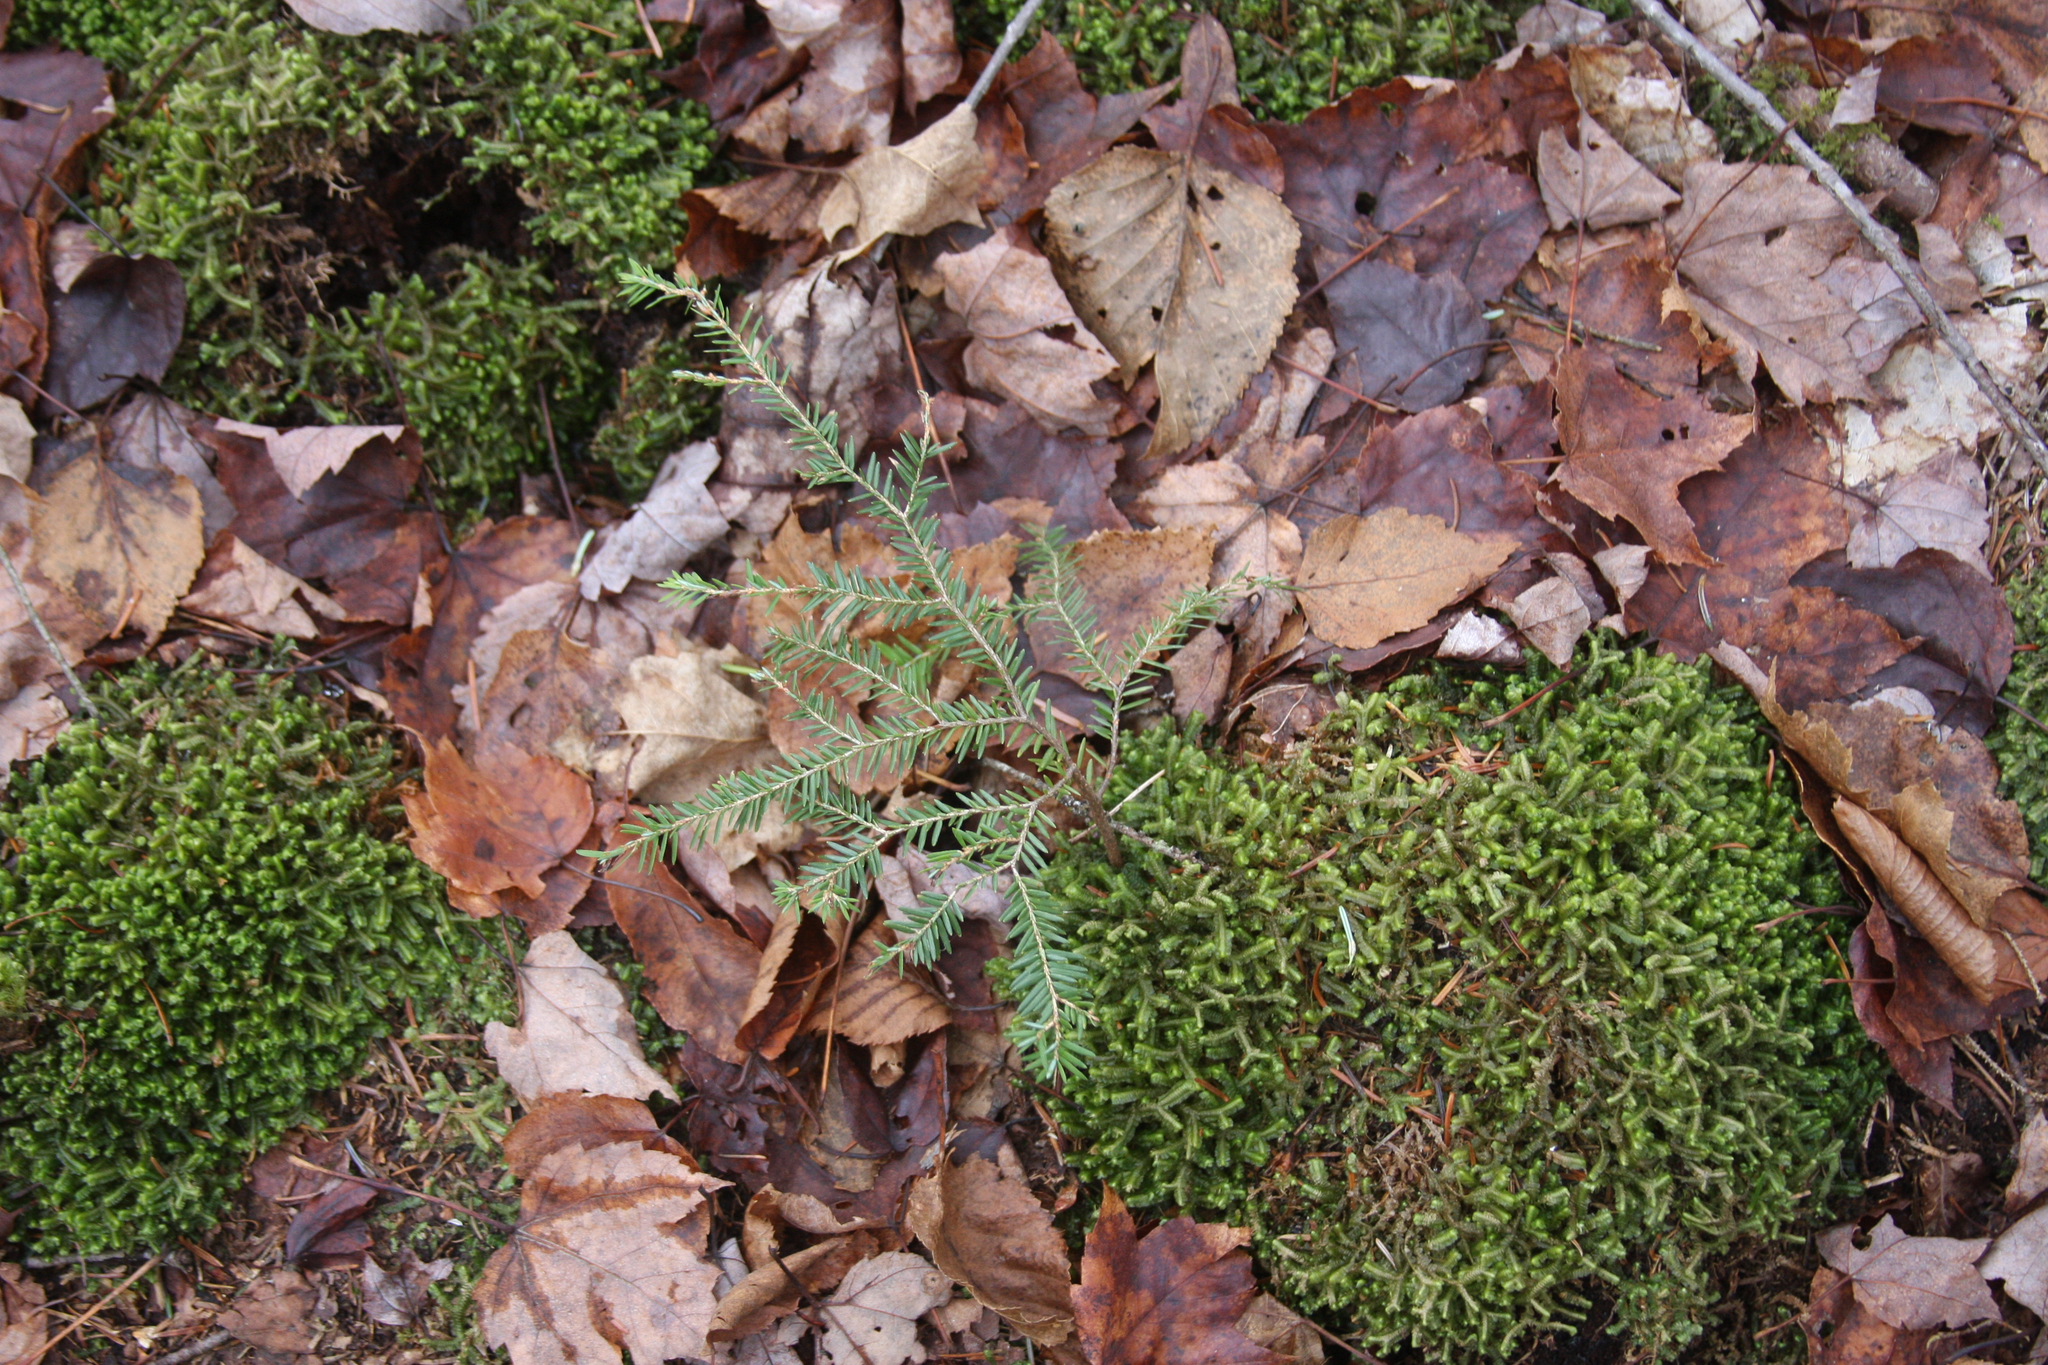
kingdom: Plantae
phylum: Tracheophyta
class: Pinopsida
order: Pinales
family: Pinaceae
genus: Tsuga
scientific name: Tsuga canadensis
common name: Eastern hemlock
